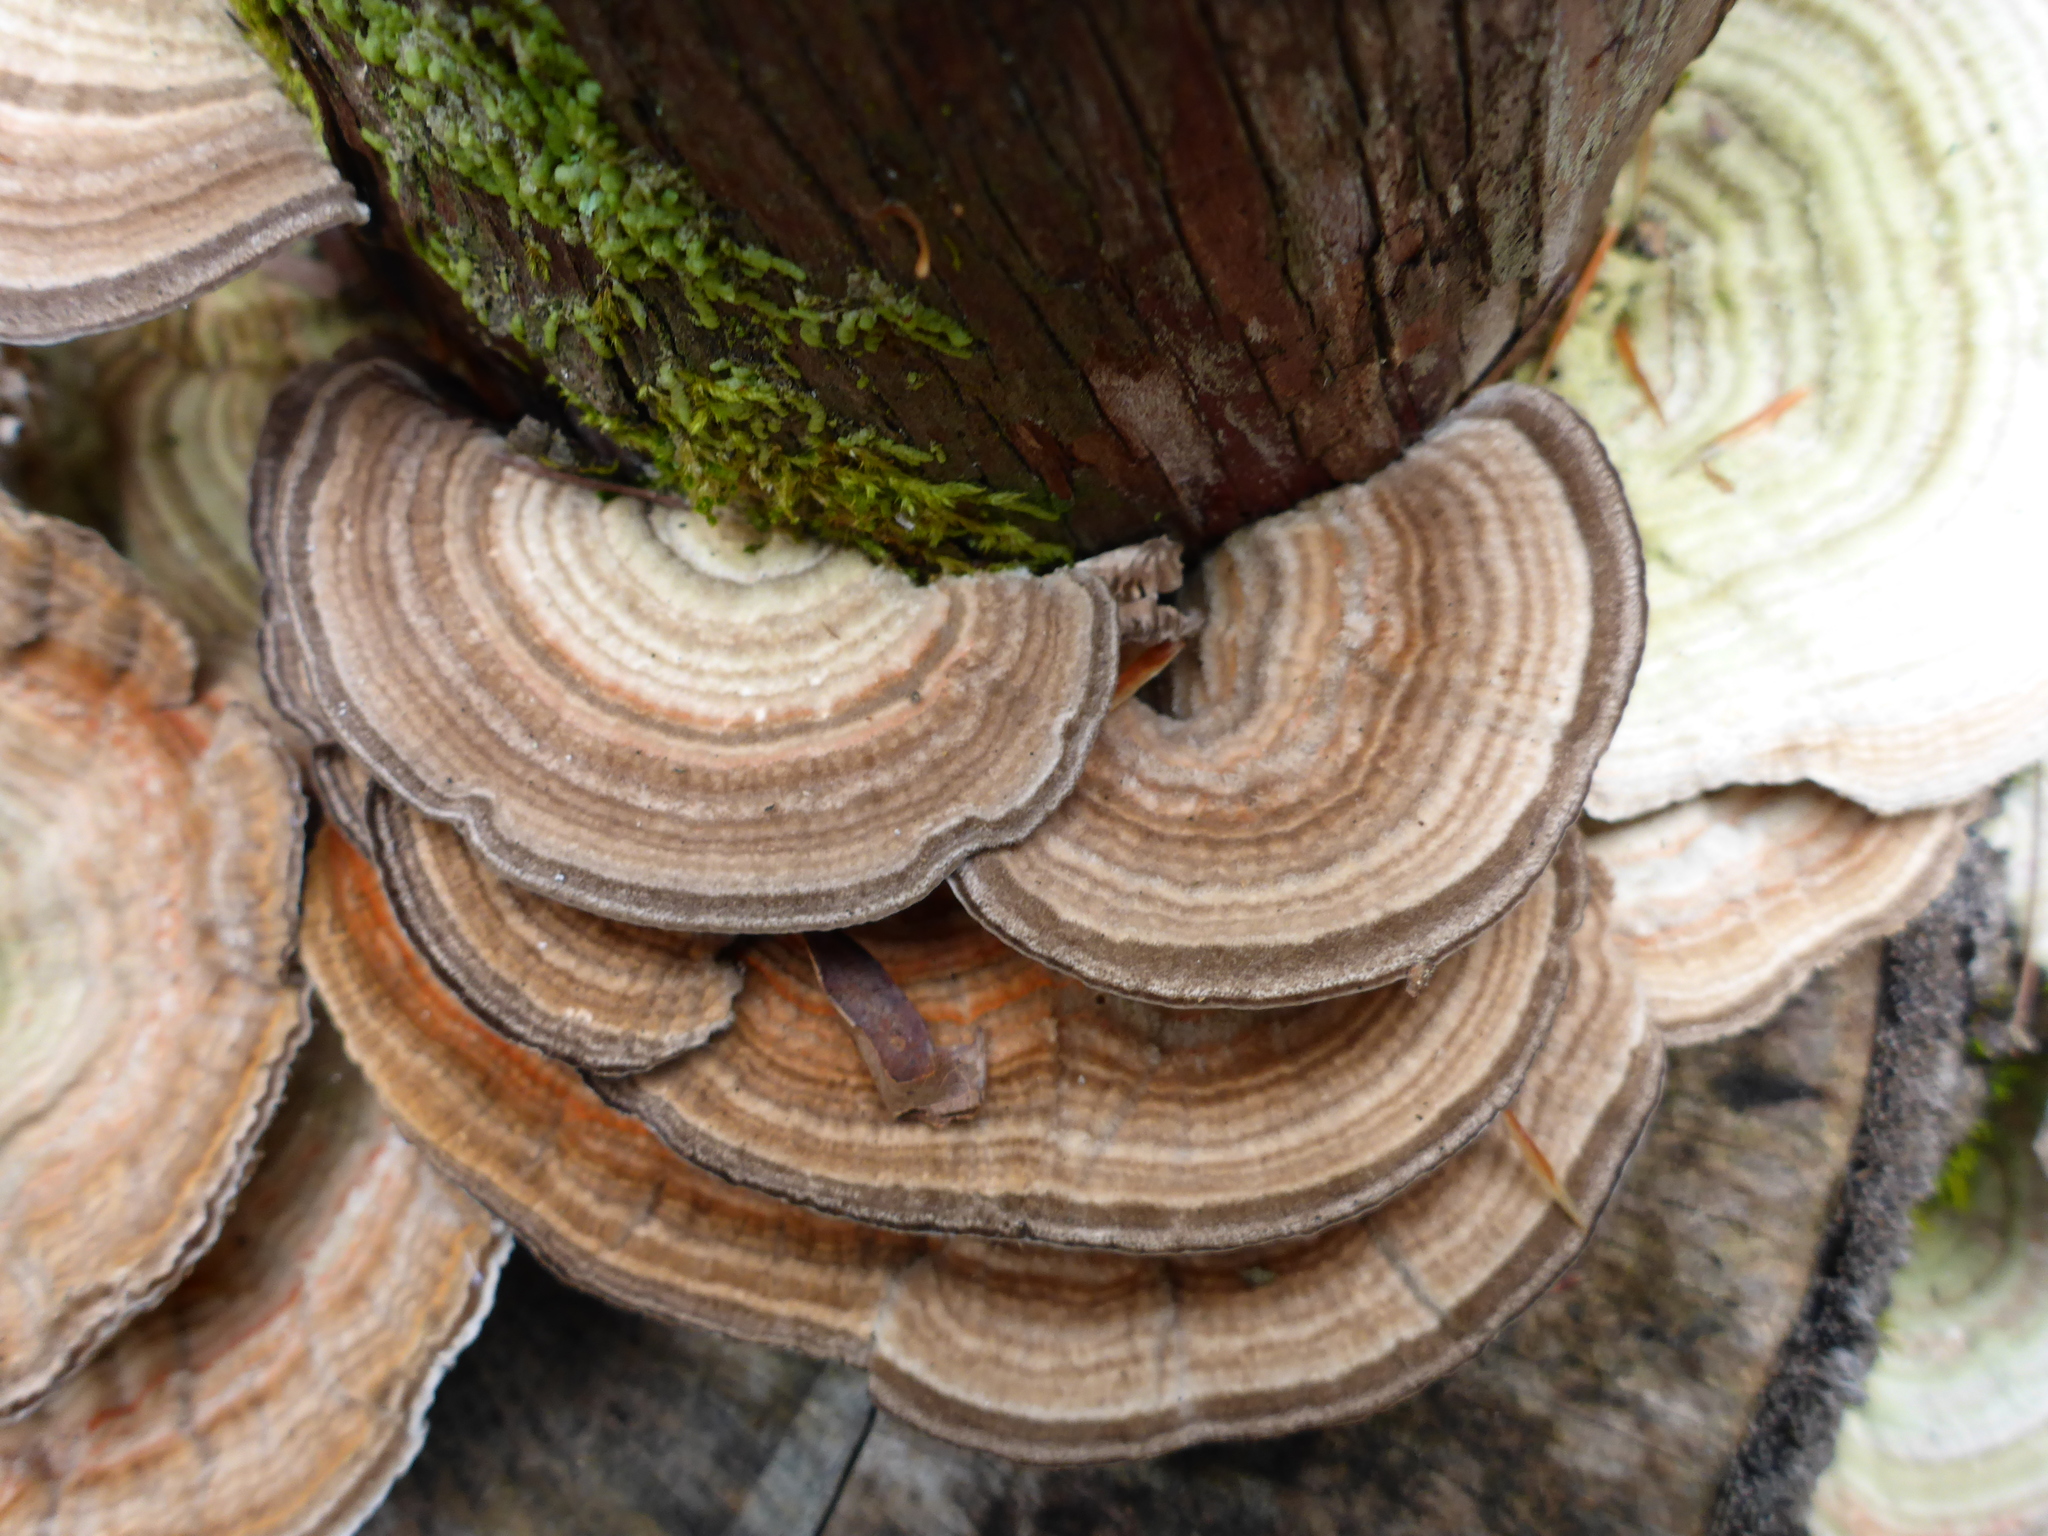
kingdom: Fungi
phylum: Basidiomycota
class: Agaricomycetes
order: Polyporales
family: Polyporaceae
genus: Lenzites
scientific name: Lenzites betulinus
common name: Birch mazegill
